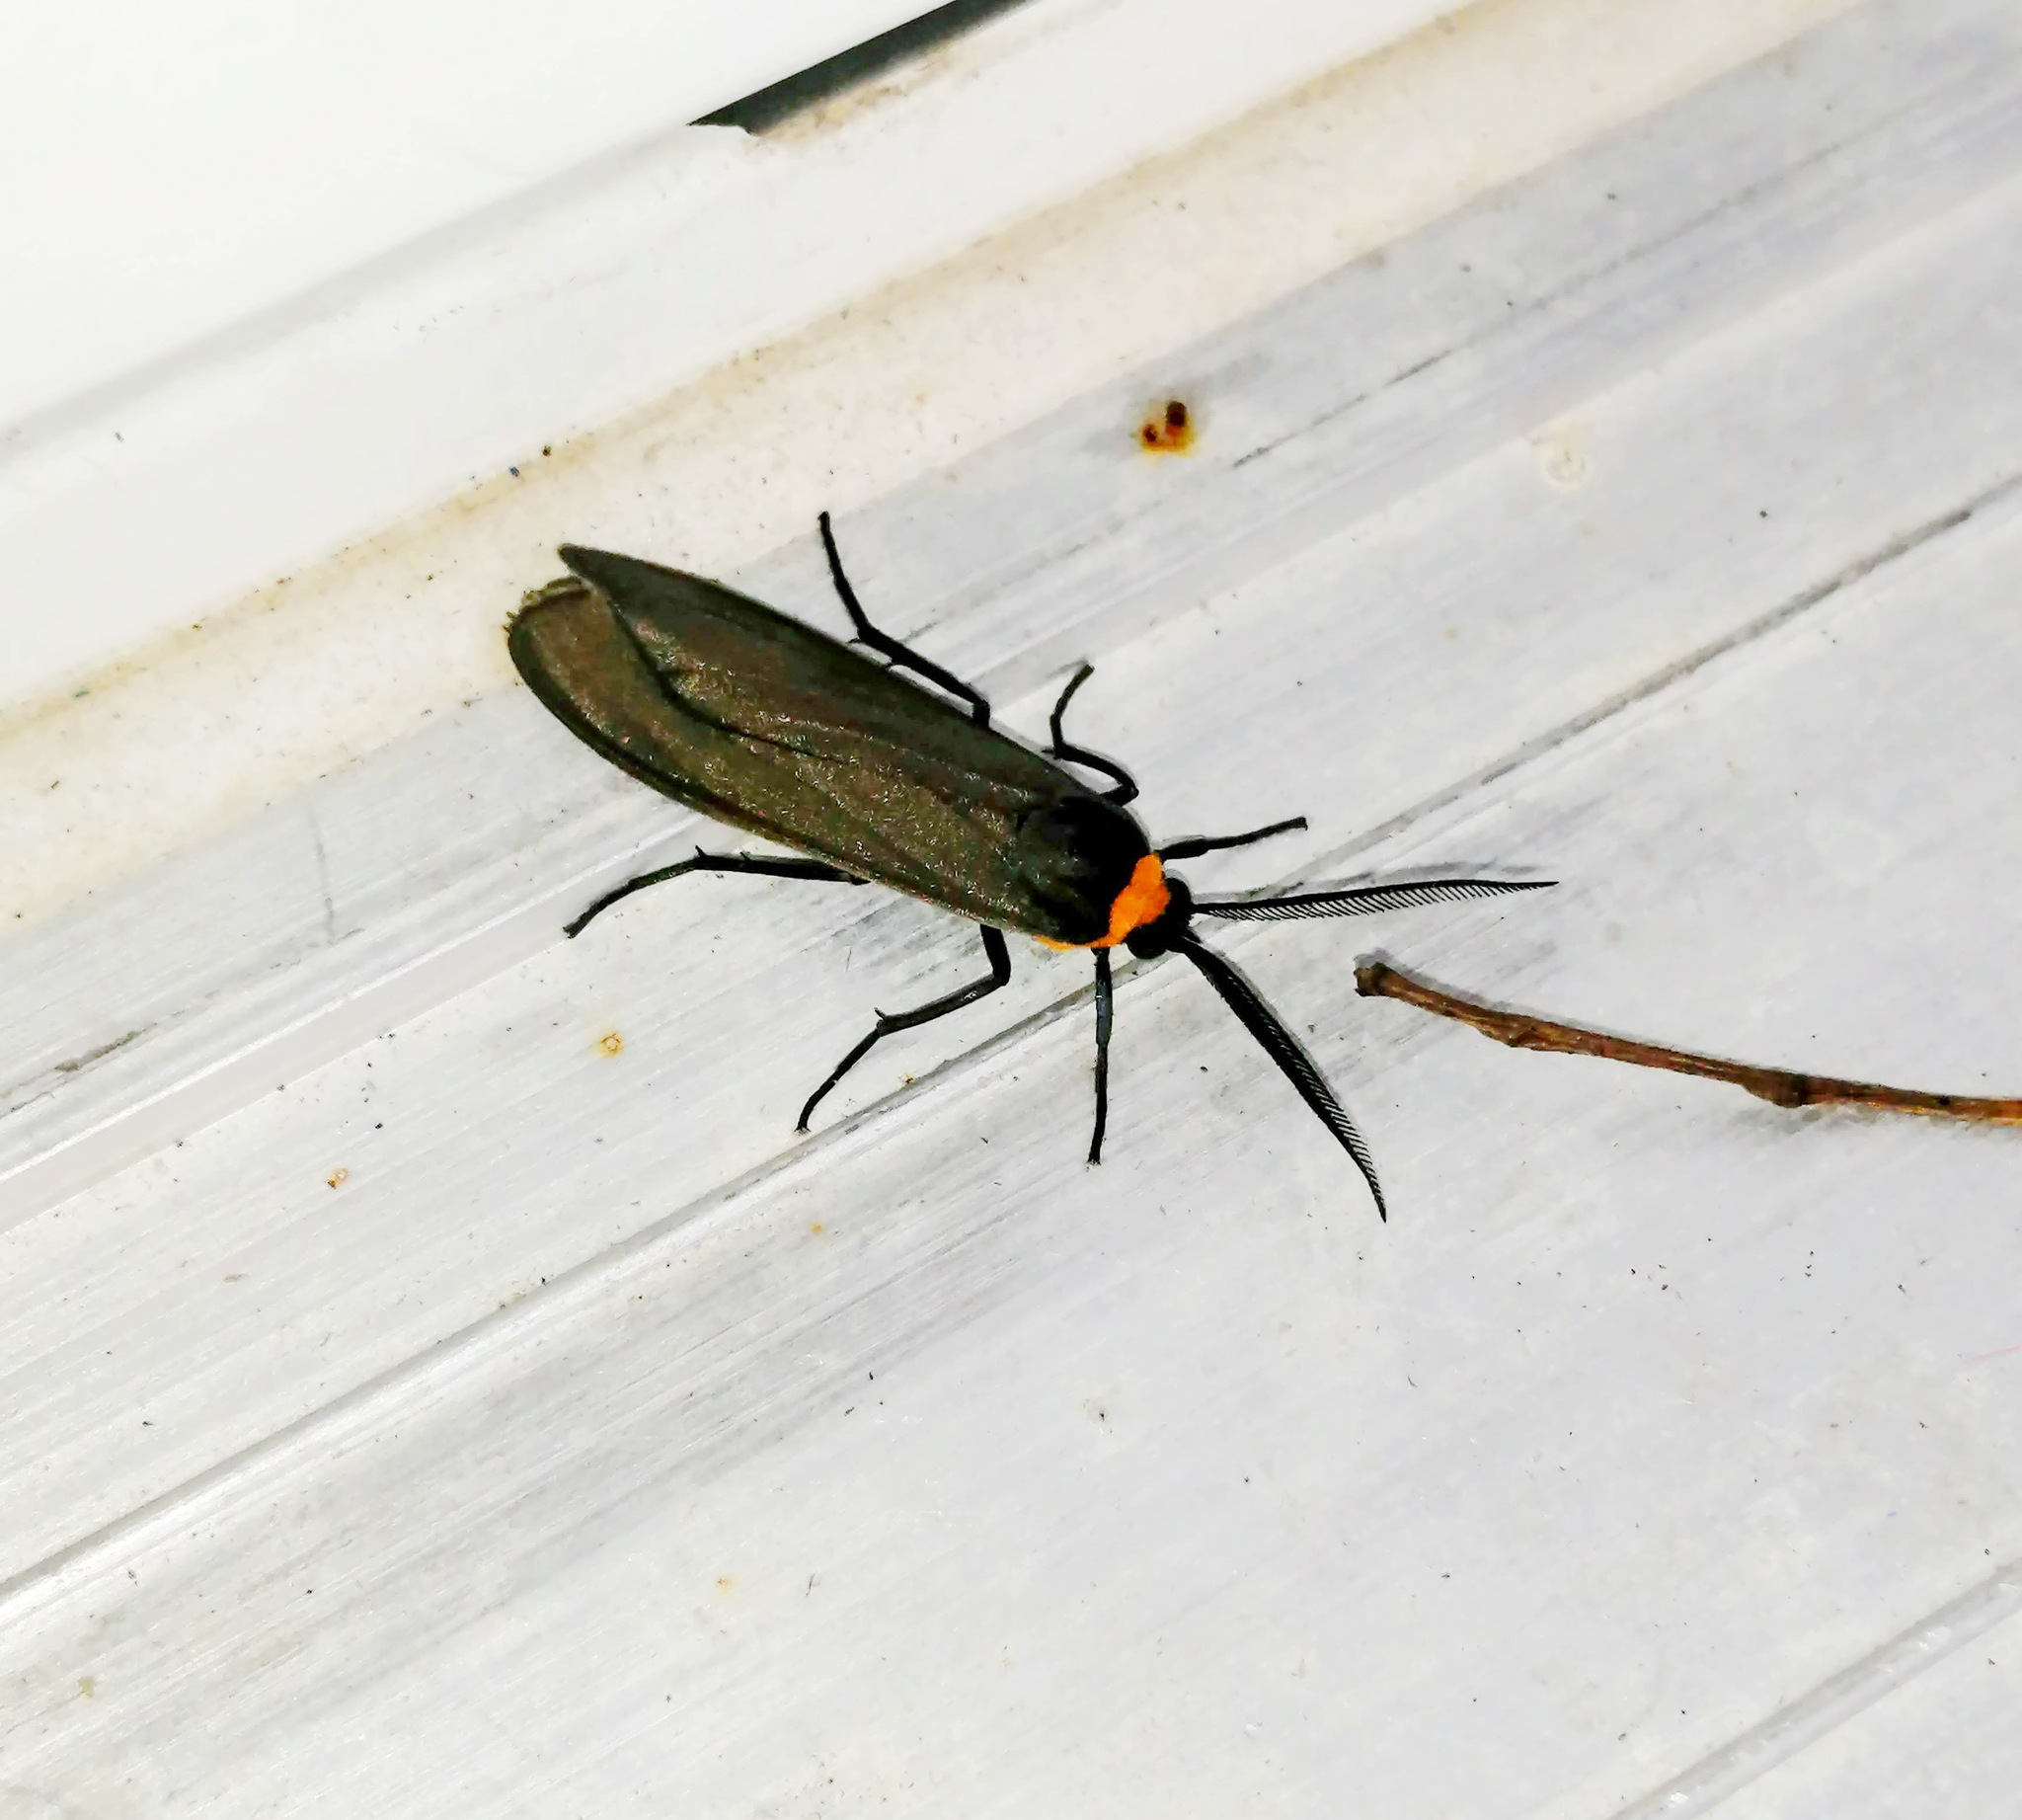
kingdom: Animalia
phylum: Arthropoda
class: Insecta
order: Lepidoptera
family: Erebidae
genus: Cisseps
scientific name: Cisseps fulvicollis
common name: Yellow-collared scape moth
